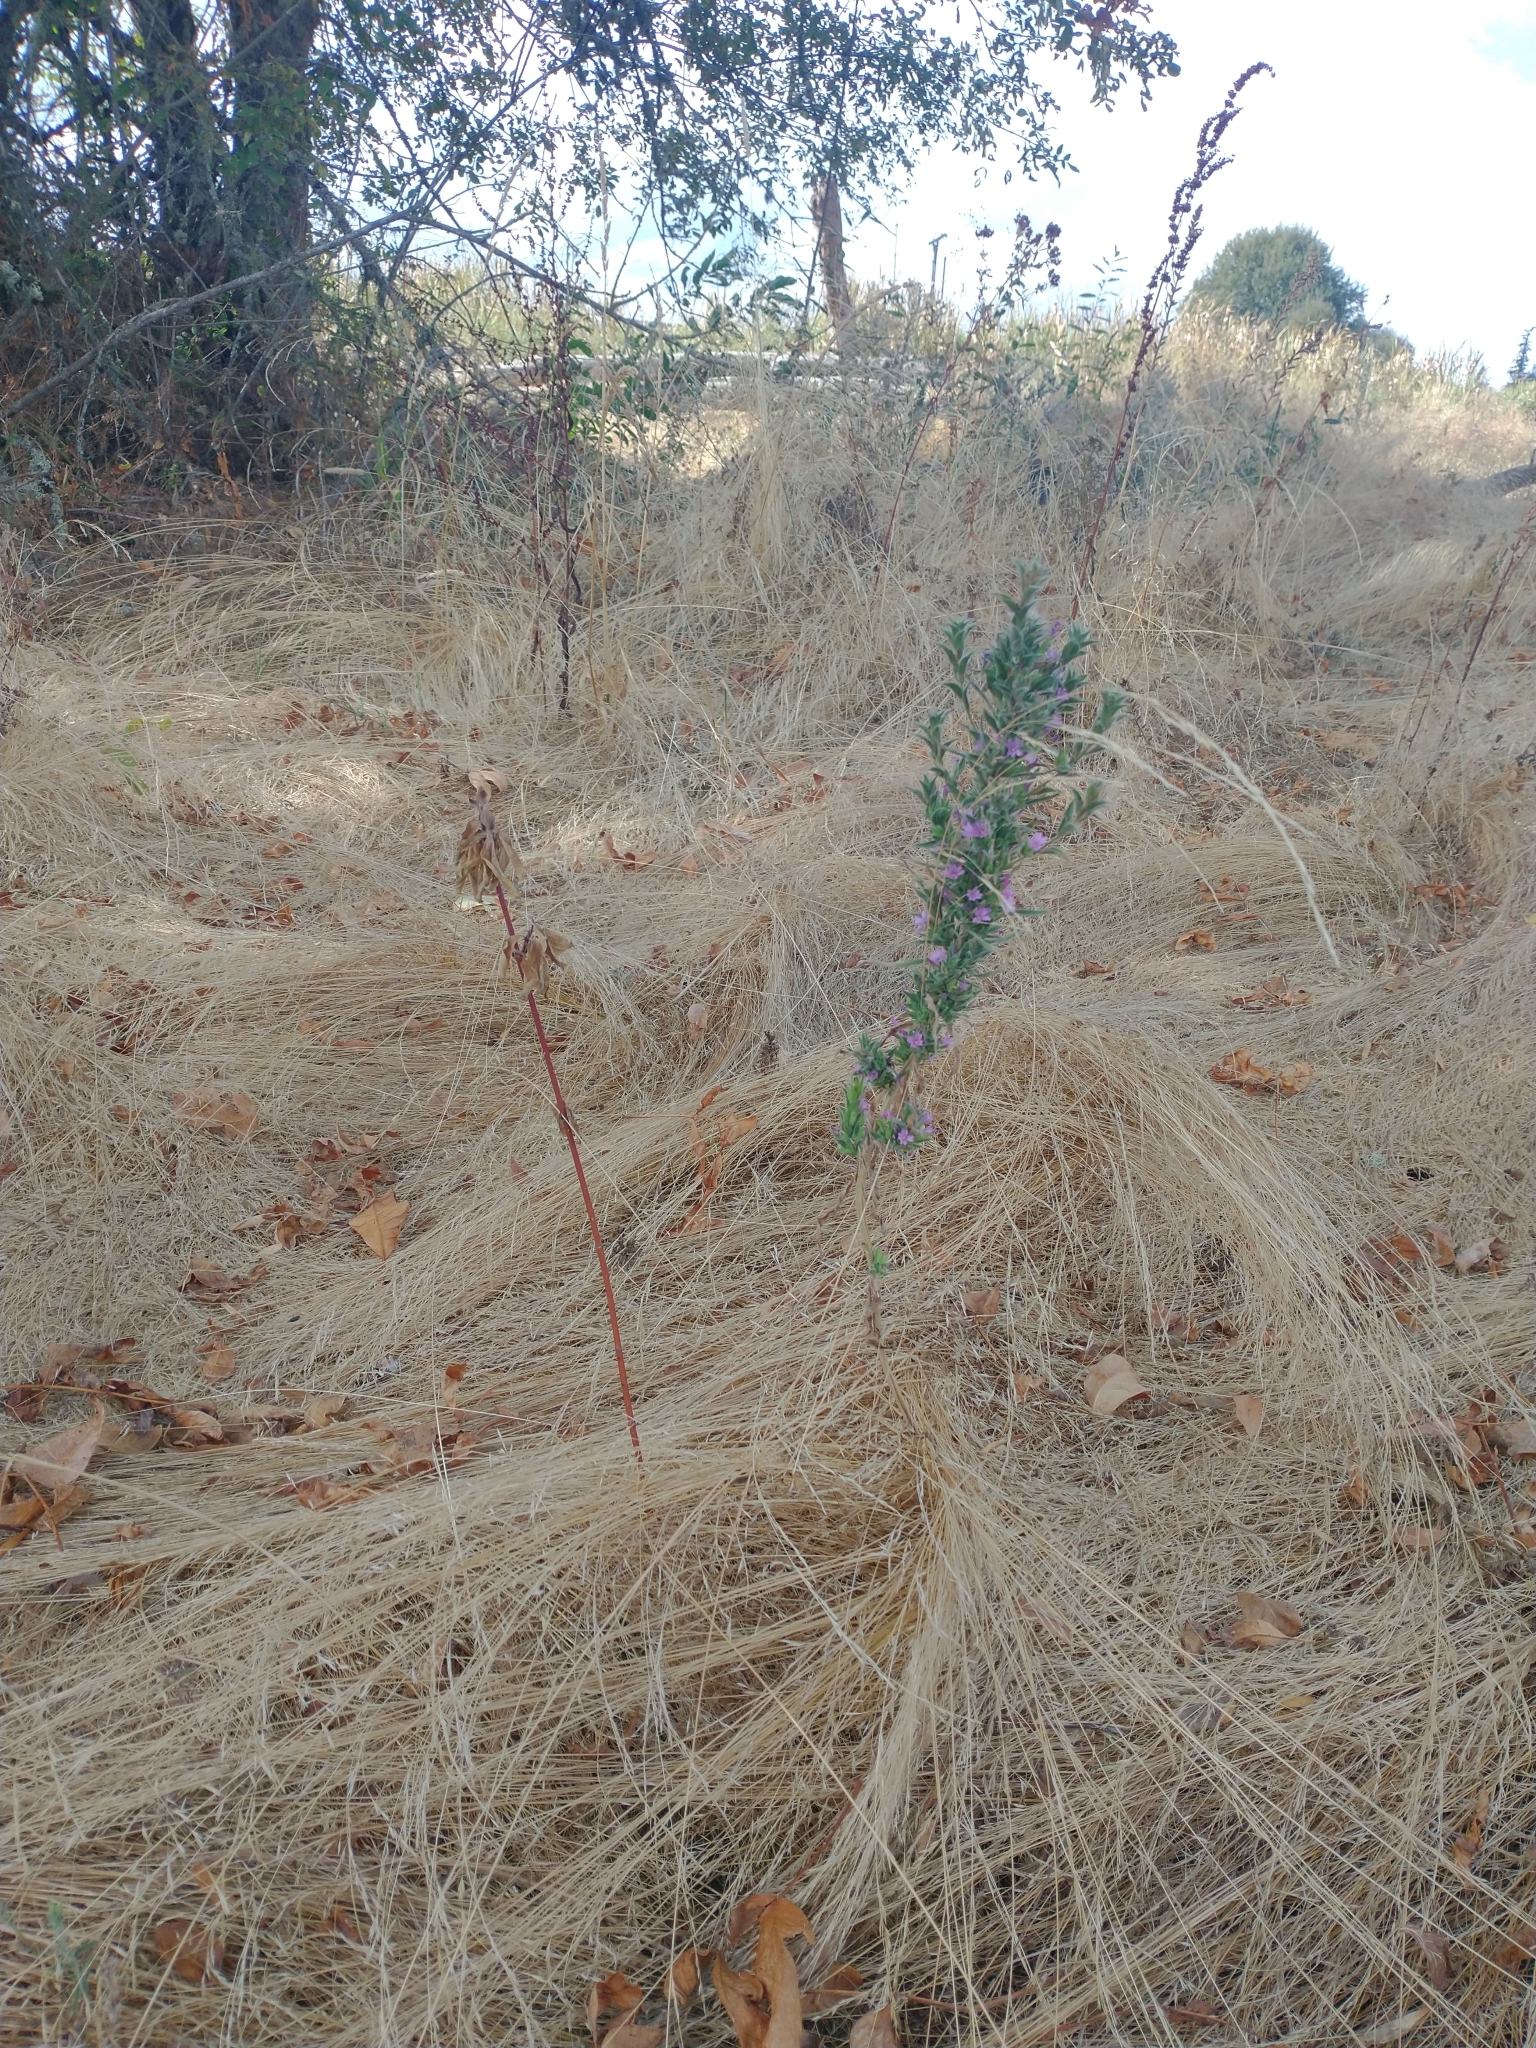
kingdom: Plantae
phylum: Tracheophyta
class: Magnoliopsida
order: Myrtales
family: Onagraceae
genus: Epilobium
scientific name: Epilobium densiflorum
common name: Dense spike-primrose
